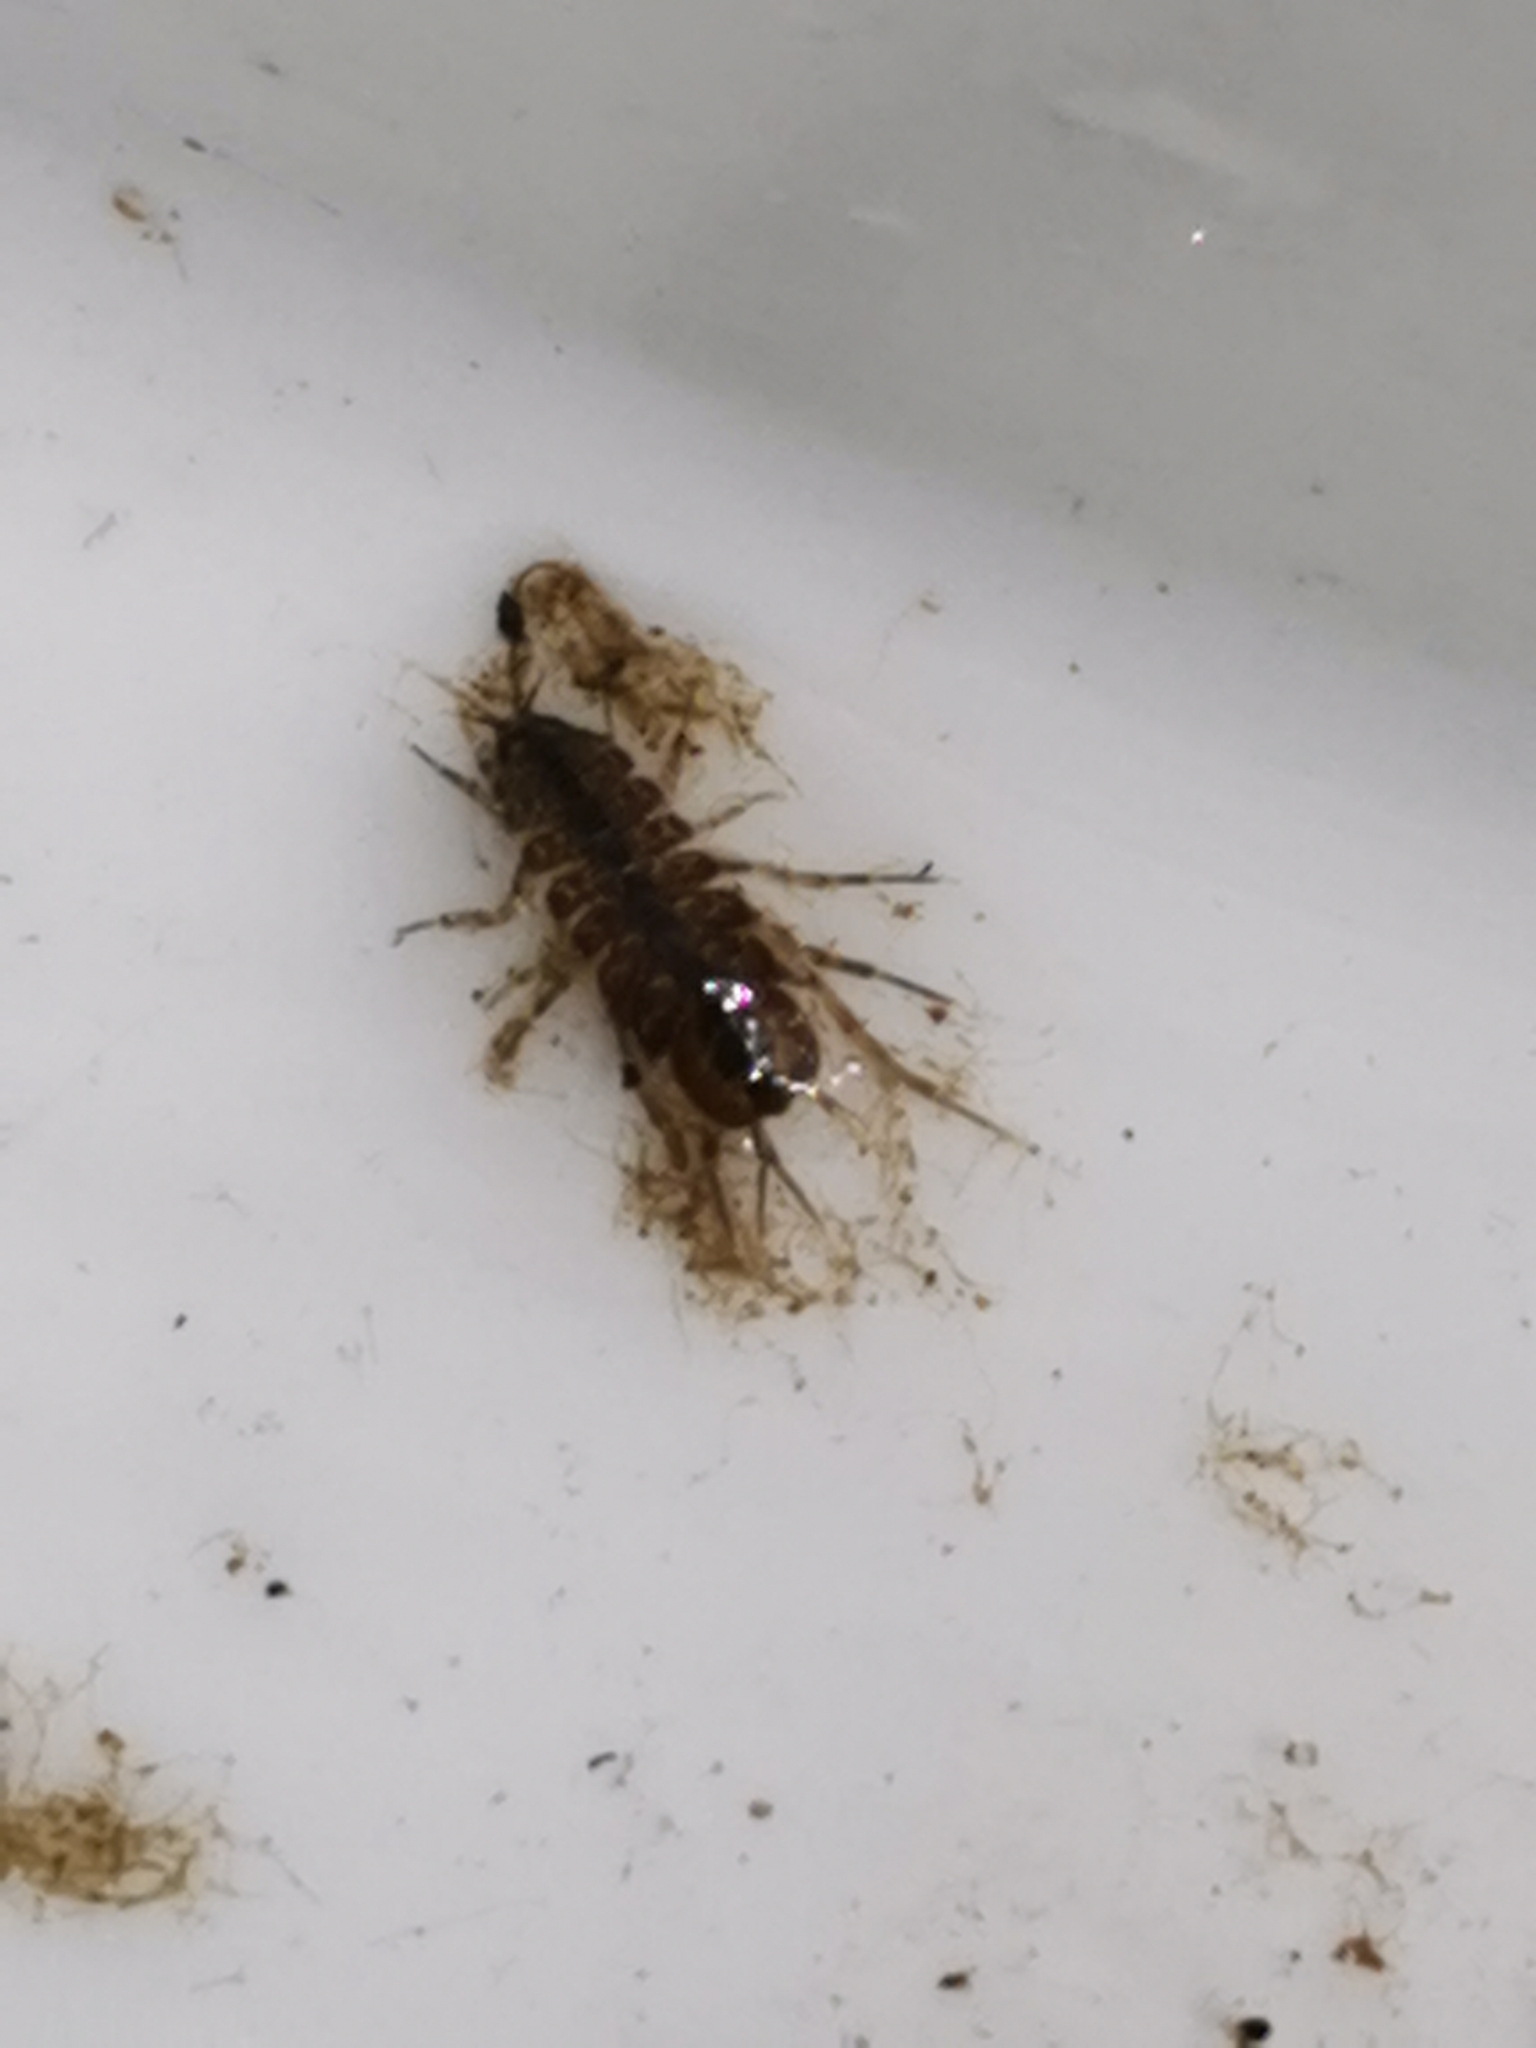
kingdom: Animalia
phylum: Arthropoda
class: Malacostraca
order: Isopoda
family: Asellidae
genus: Asellus
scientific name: Asellus aquaticus
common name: Water hog lice/slaters
